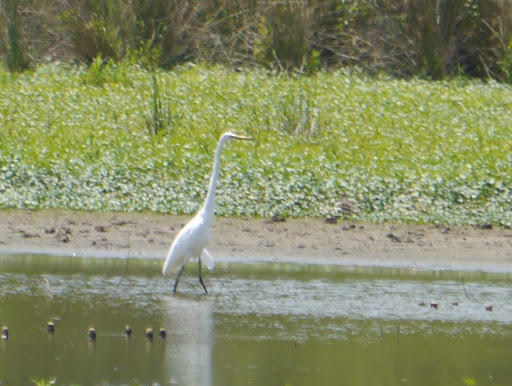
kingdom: Animalia
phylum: Chordata
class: Aves
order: Pelecaniformes
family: Ardeidae
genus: Ardea
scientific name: Ardea alba
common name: Great egret
